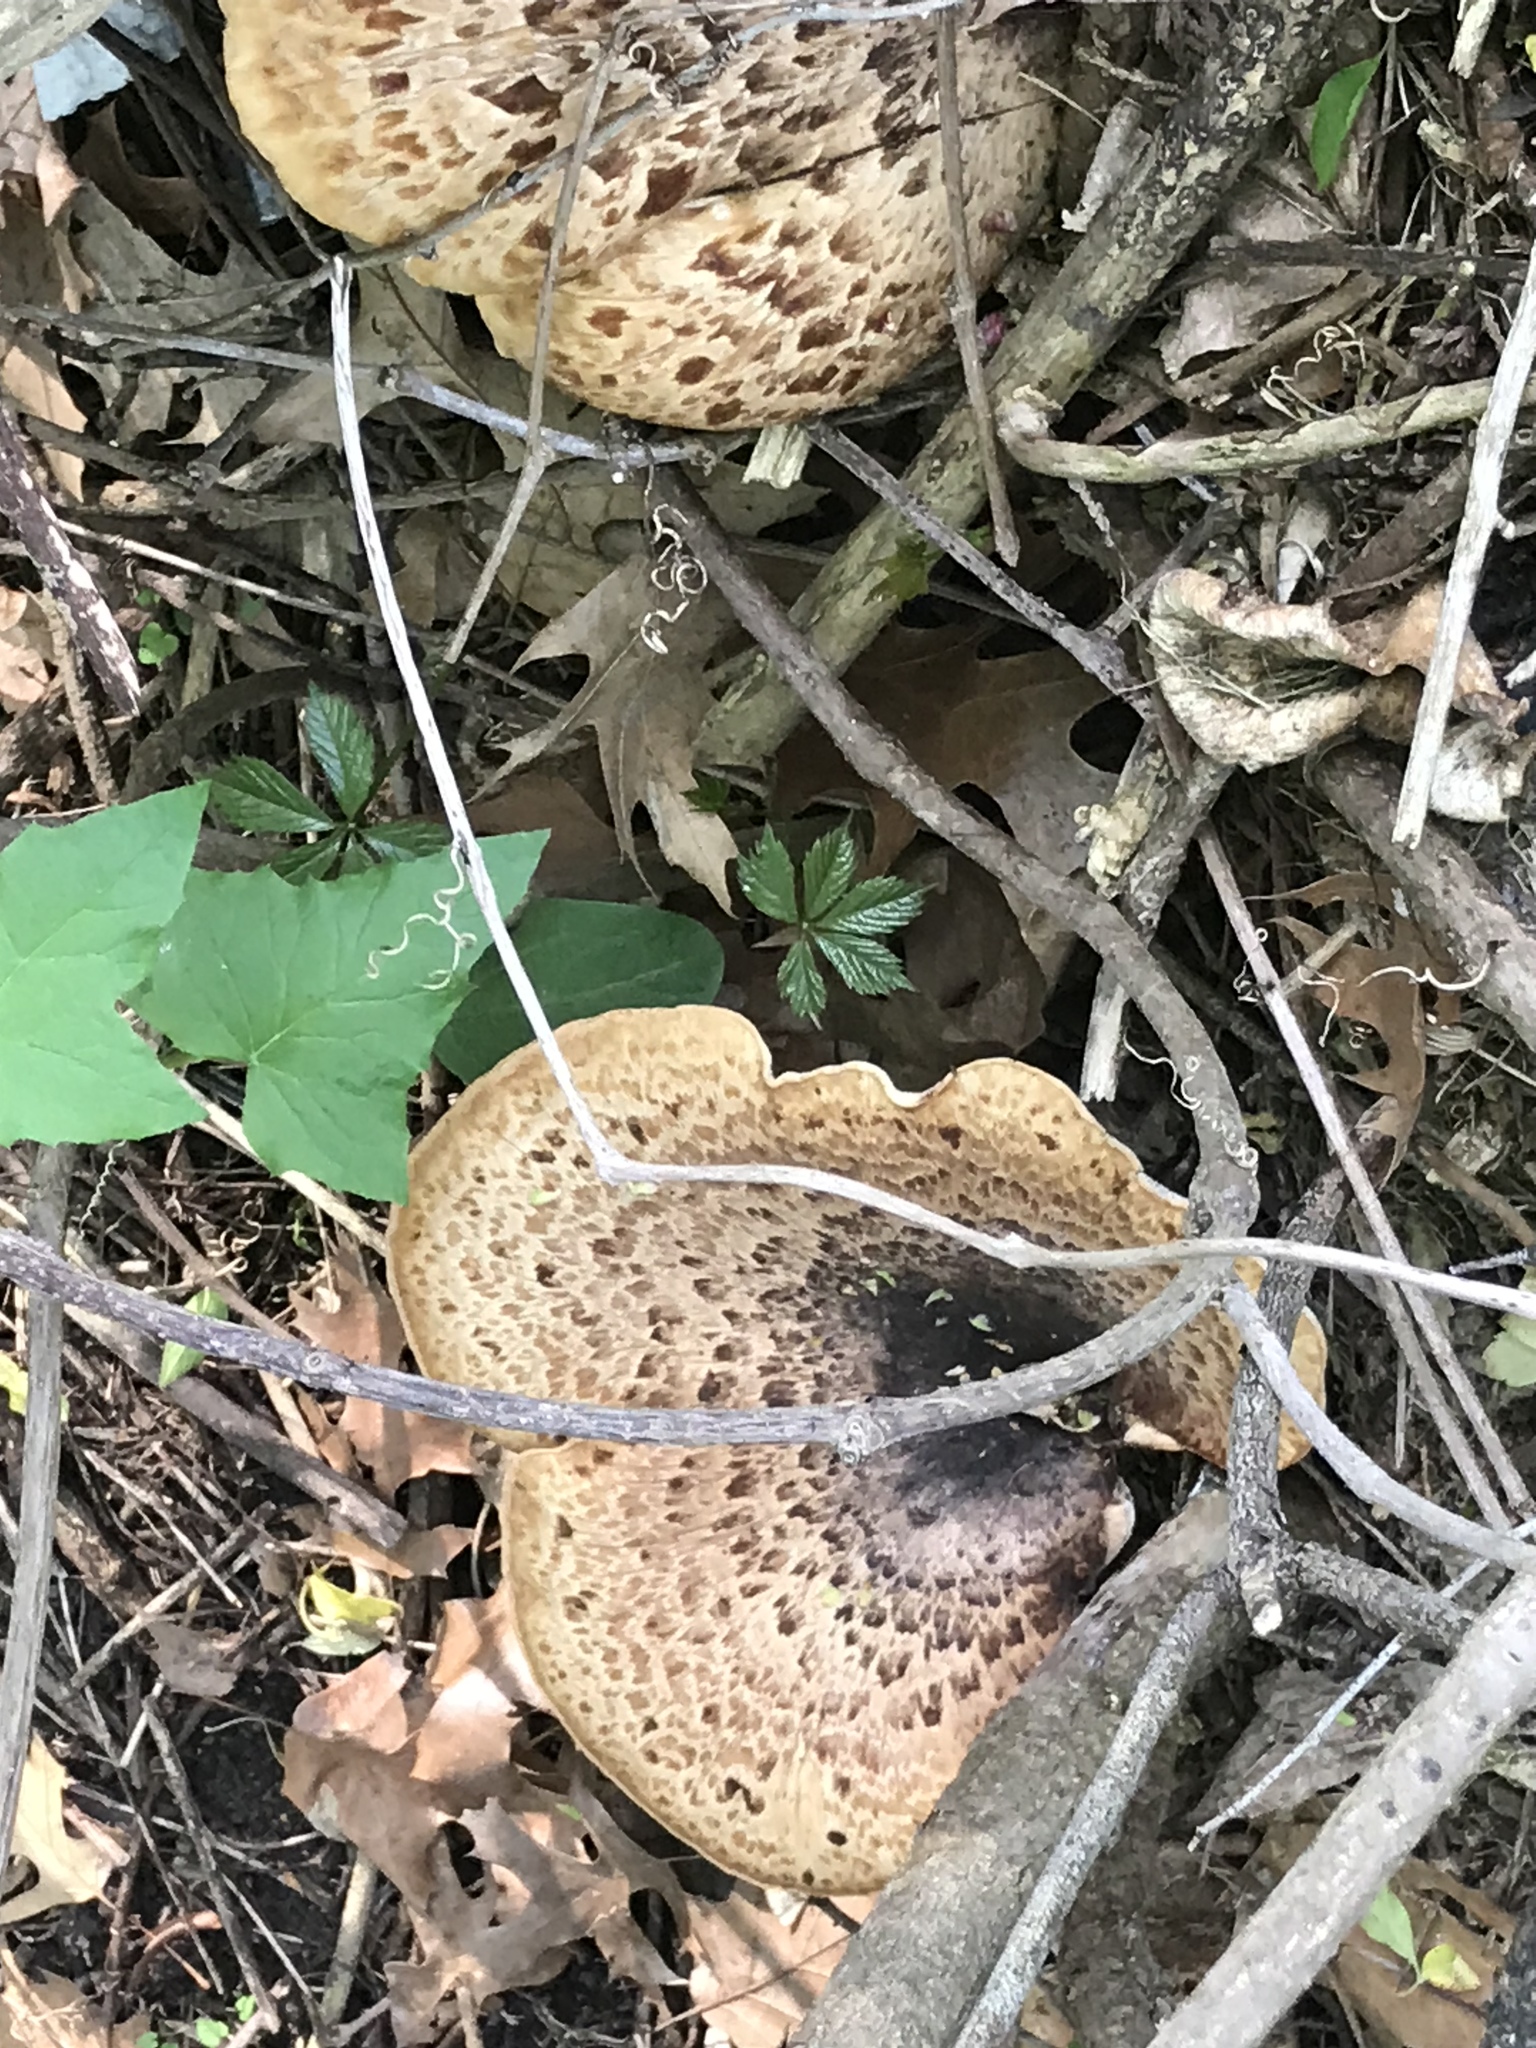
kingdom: Fungi
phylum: Basidiomycota
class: Agaricomycetes
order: Polyporales
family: Polyporaceae
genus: Cerioporus
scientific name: Cerioporus squamosus
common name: Dryad's saddle
